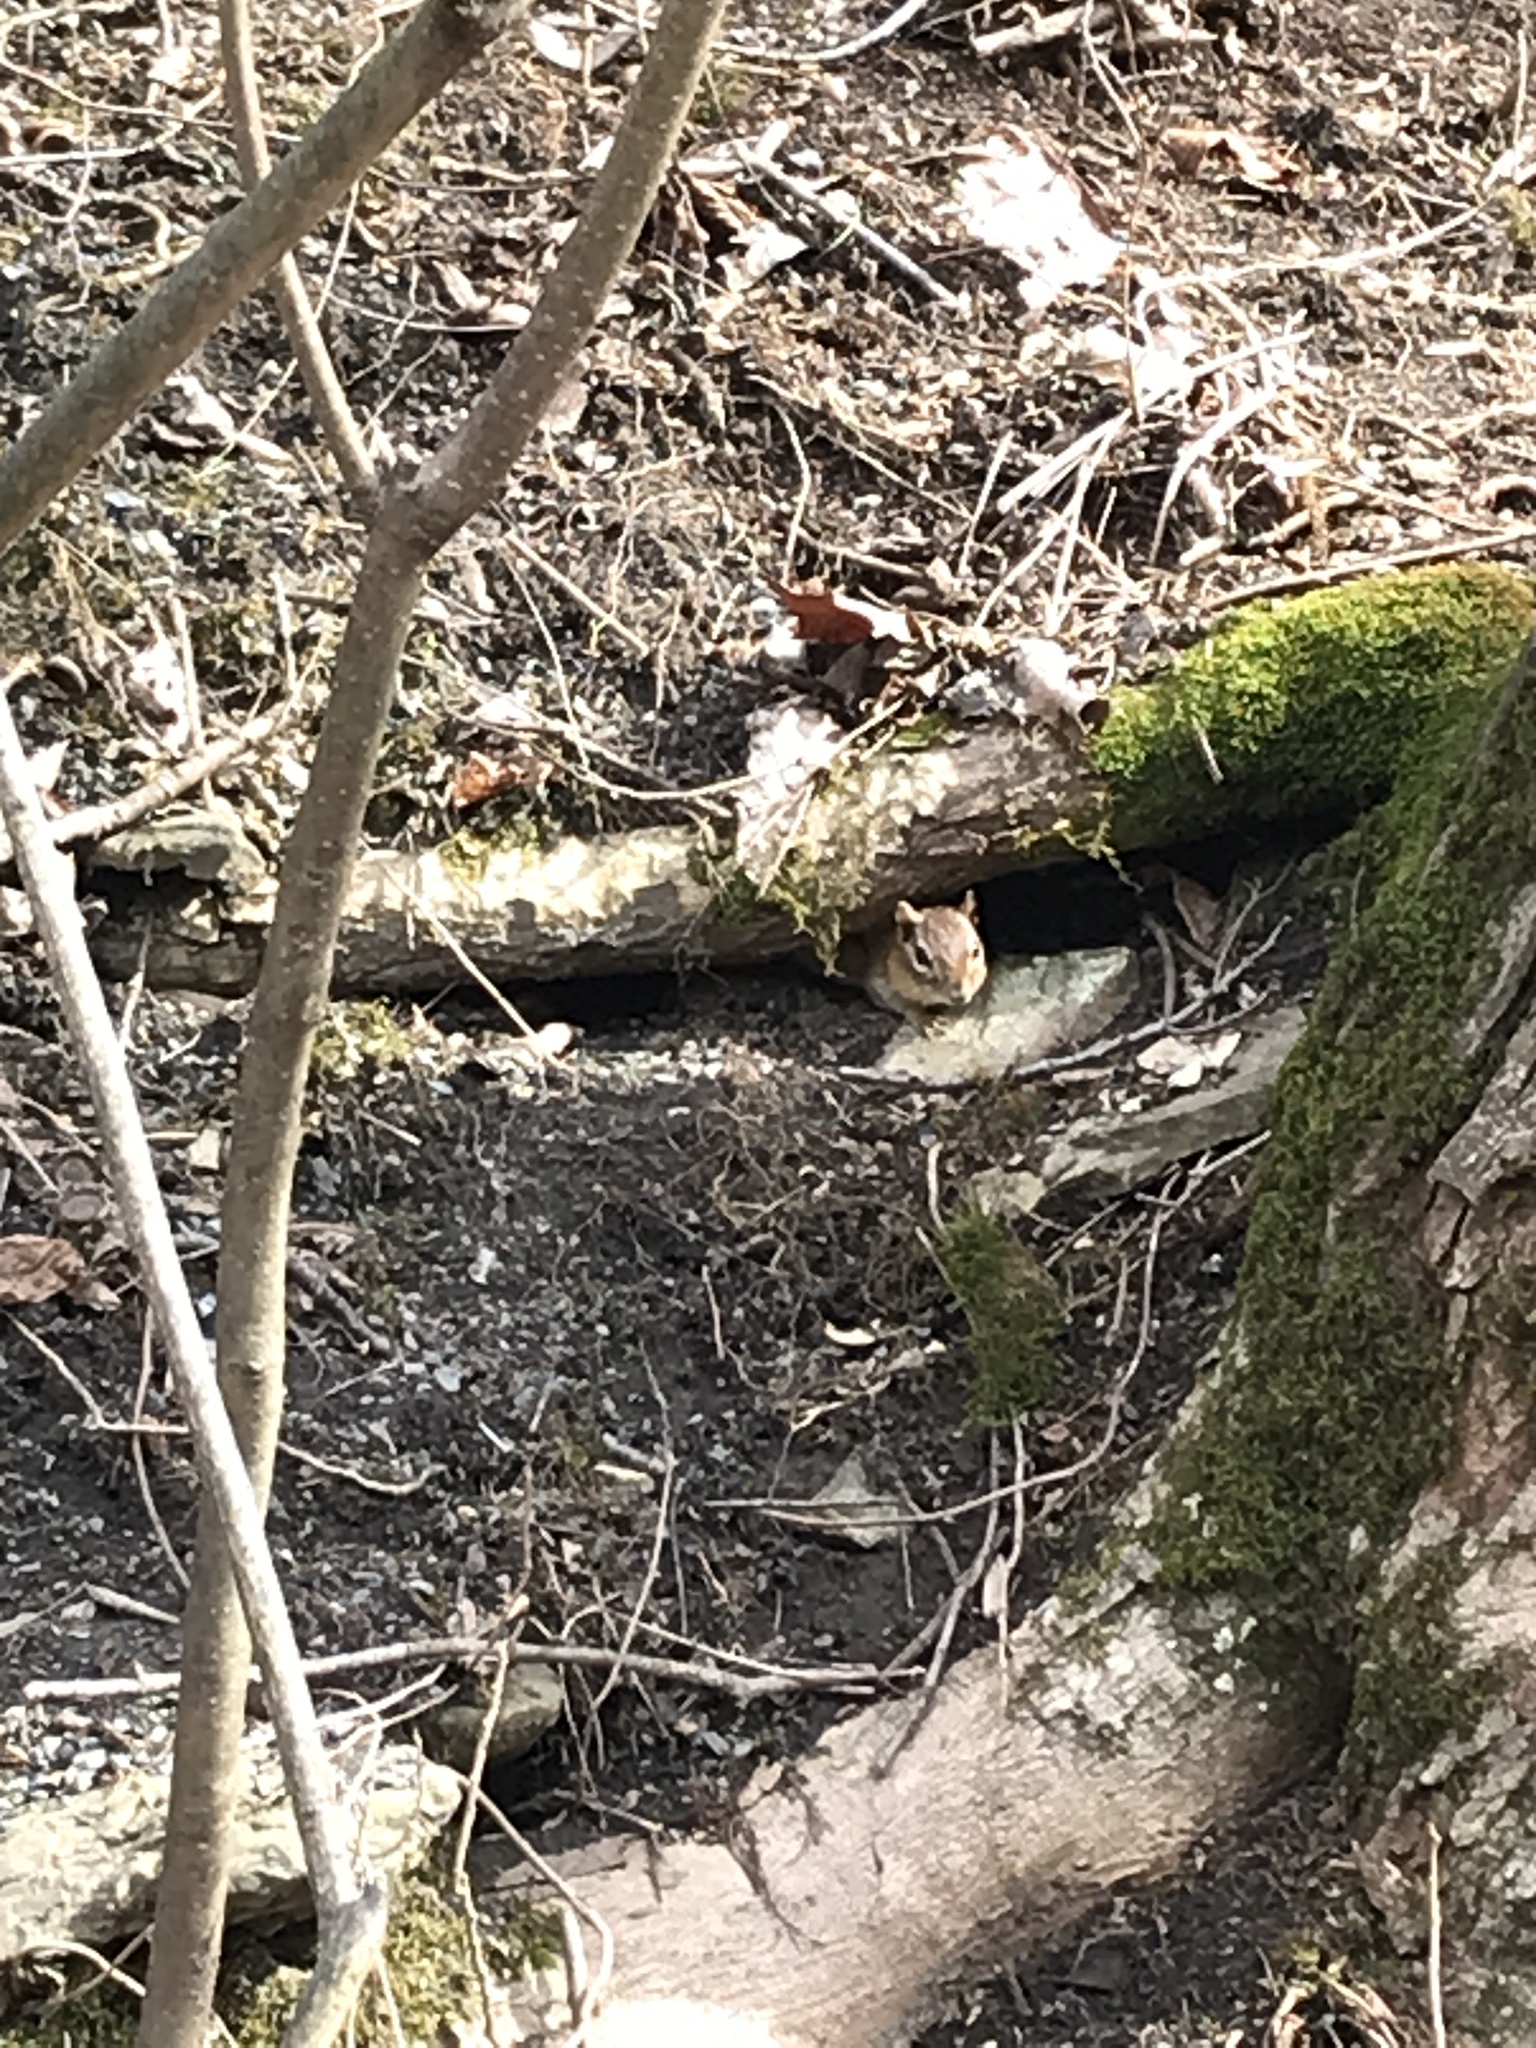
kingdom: Animalia
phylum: Chordata
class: Mammalia
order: Rodentia
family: Sciuridae
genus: Tamias
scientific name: Tamias striatus
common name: Eastern chipmunk
